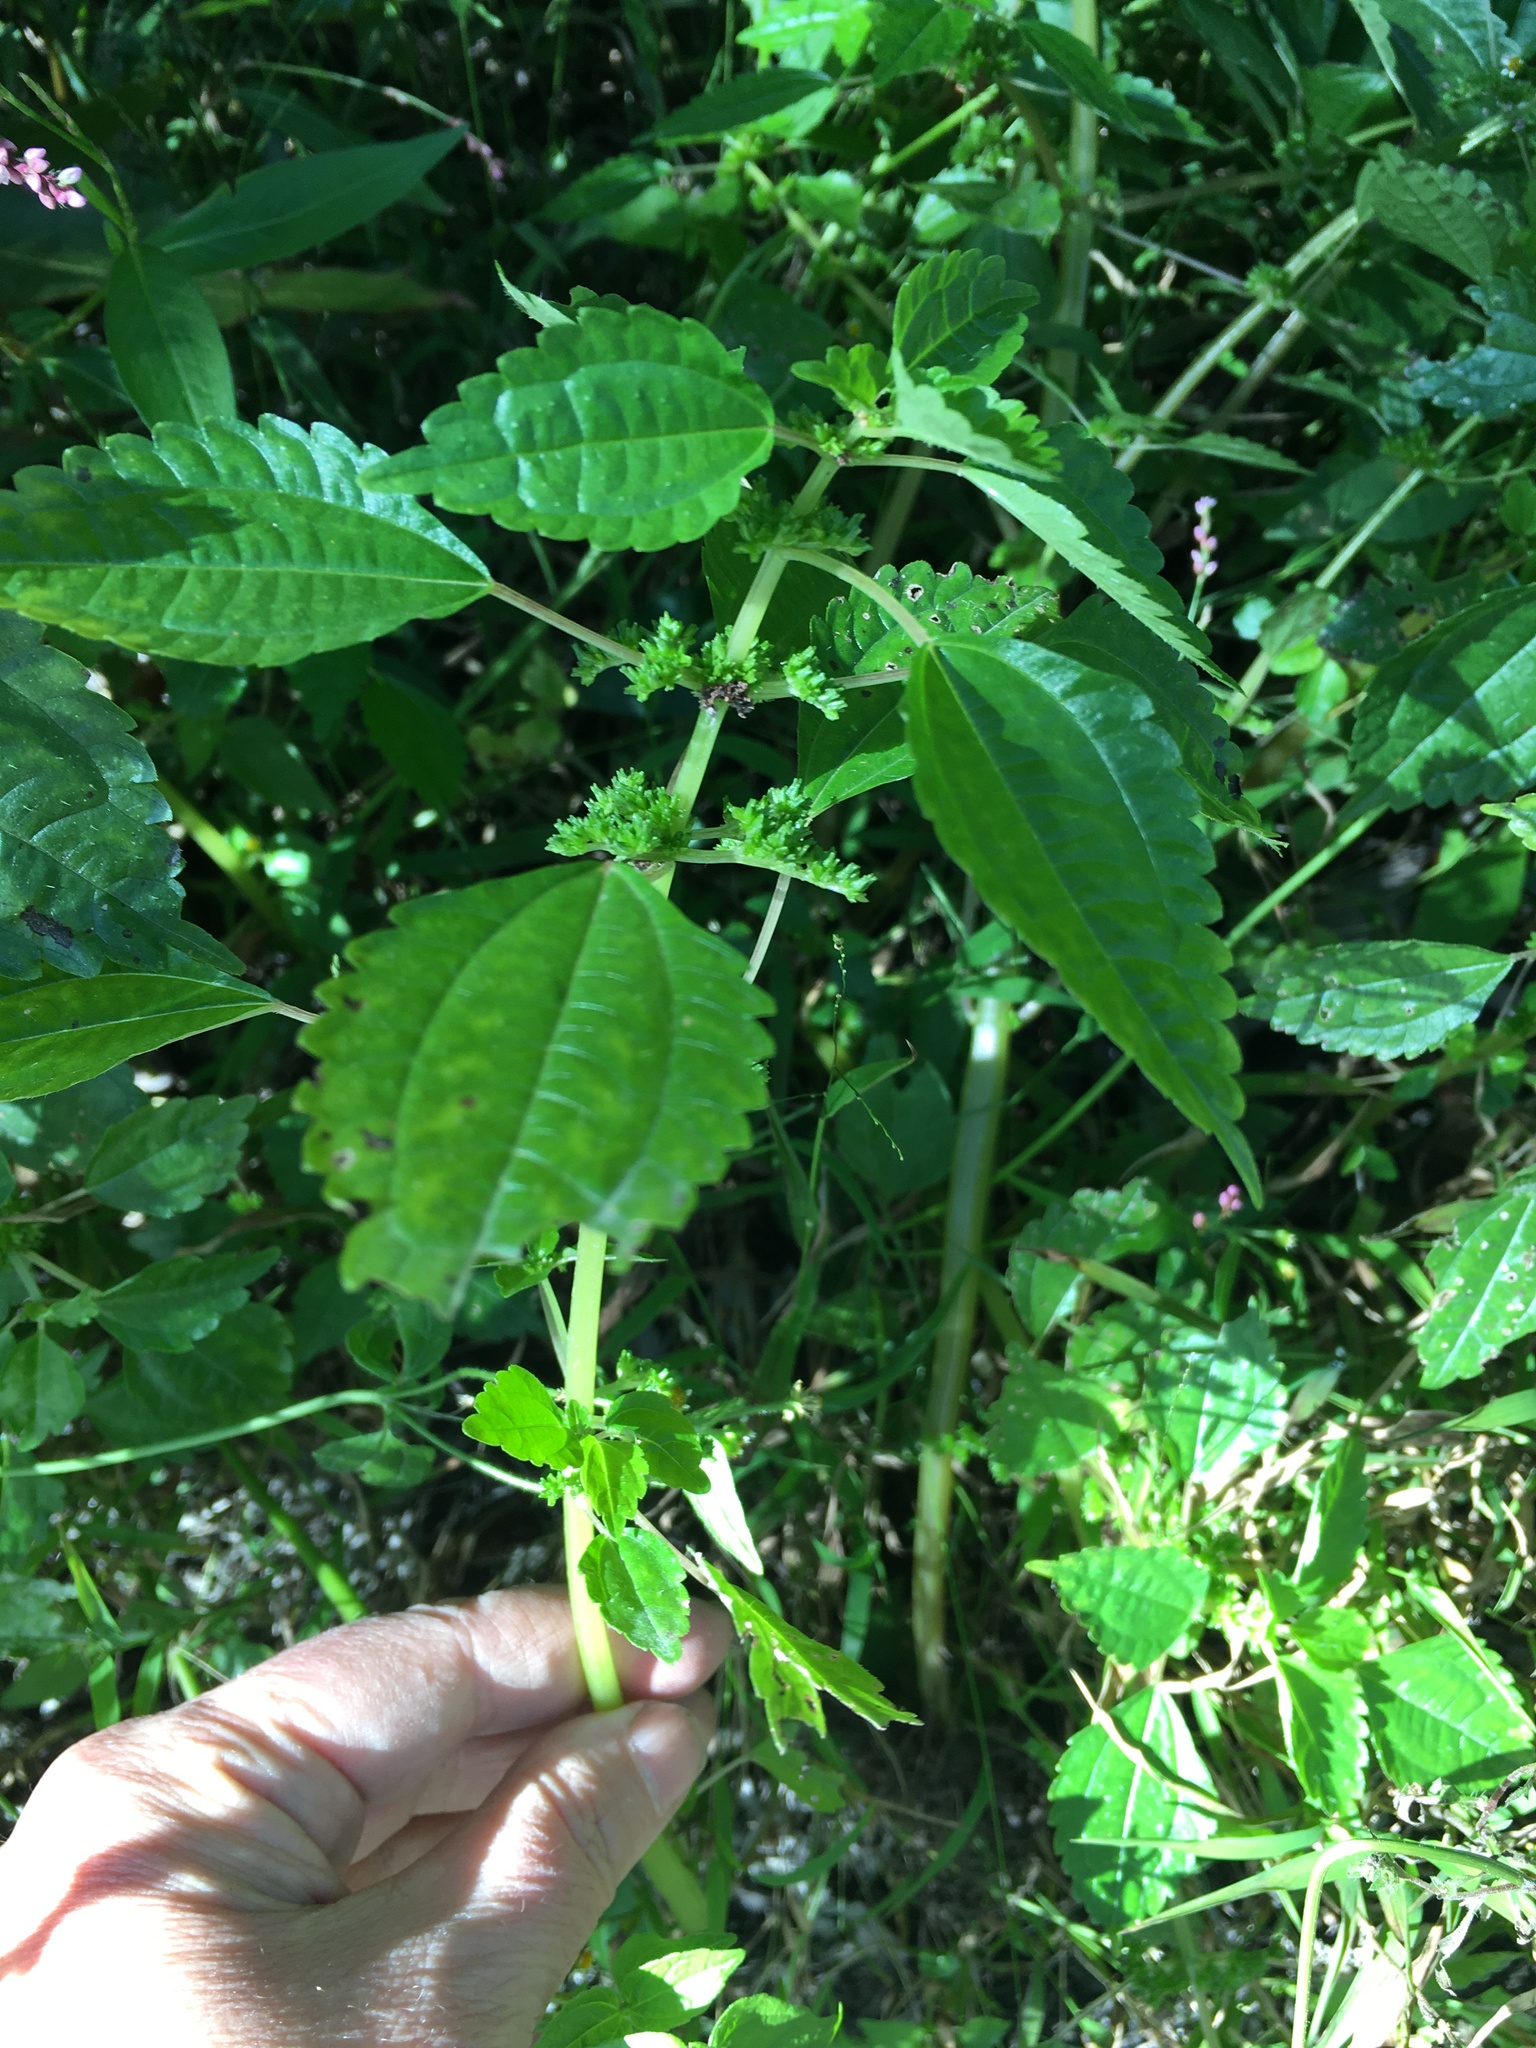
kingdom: Plantae
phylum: Tracheophyta
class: Magnoliopsida
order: Rosales
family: Urticaceae
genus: Pilea
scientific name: Pilea pumila
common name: Clearweed
